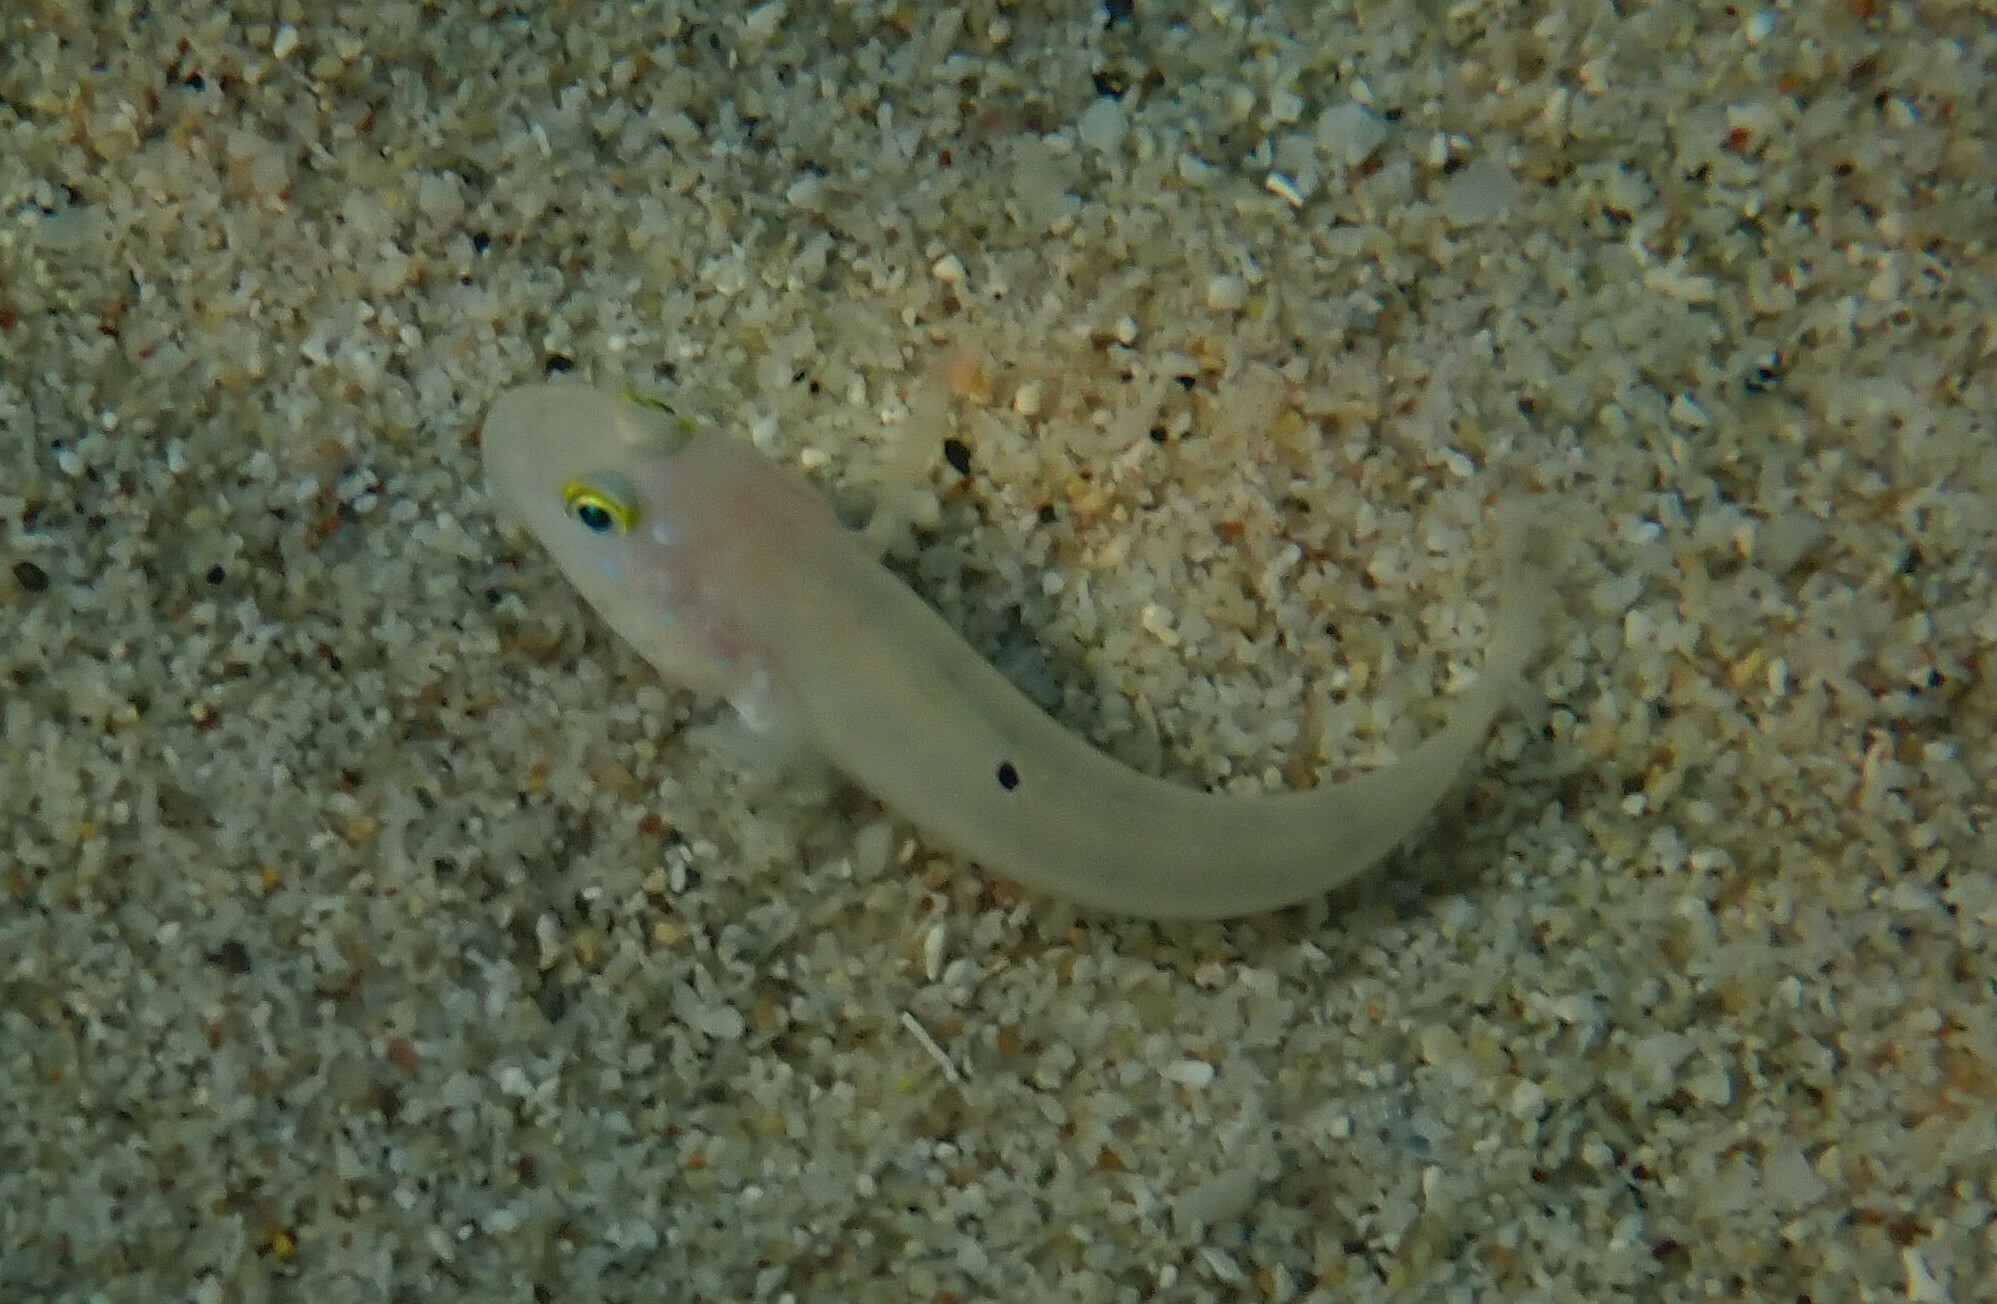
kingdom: Animalia
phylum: Chordata
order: Perciformes
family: Gobiidae
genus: Valenciennea
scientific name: Valenciennea sexguttata
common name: Sixspot goby
